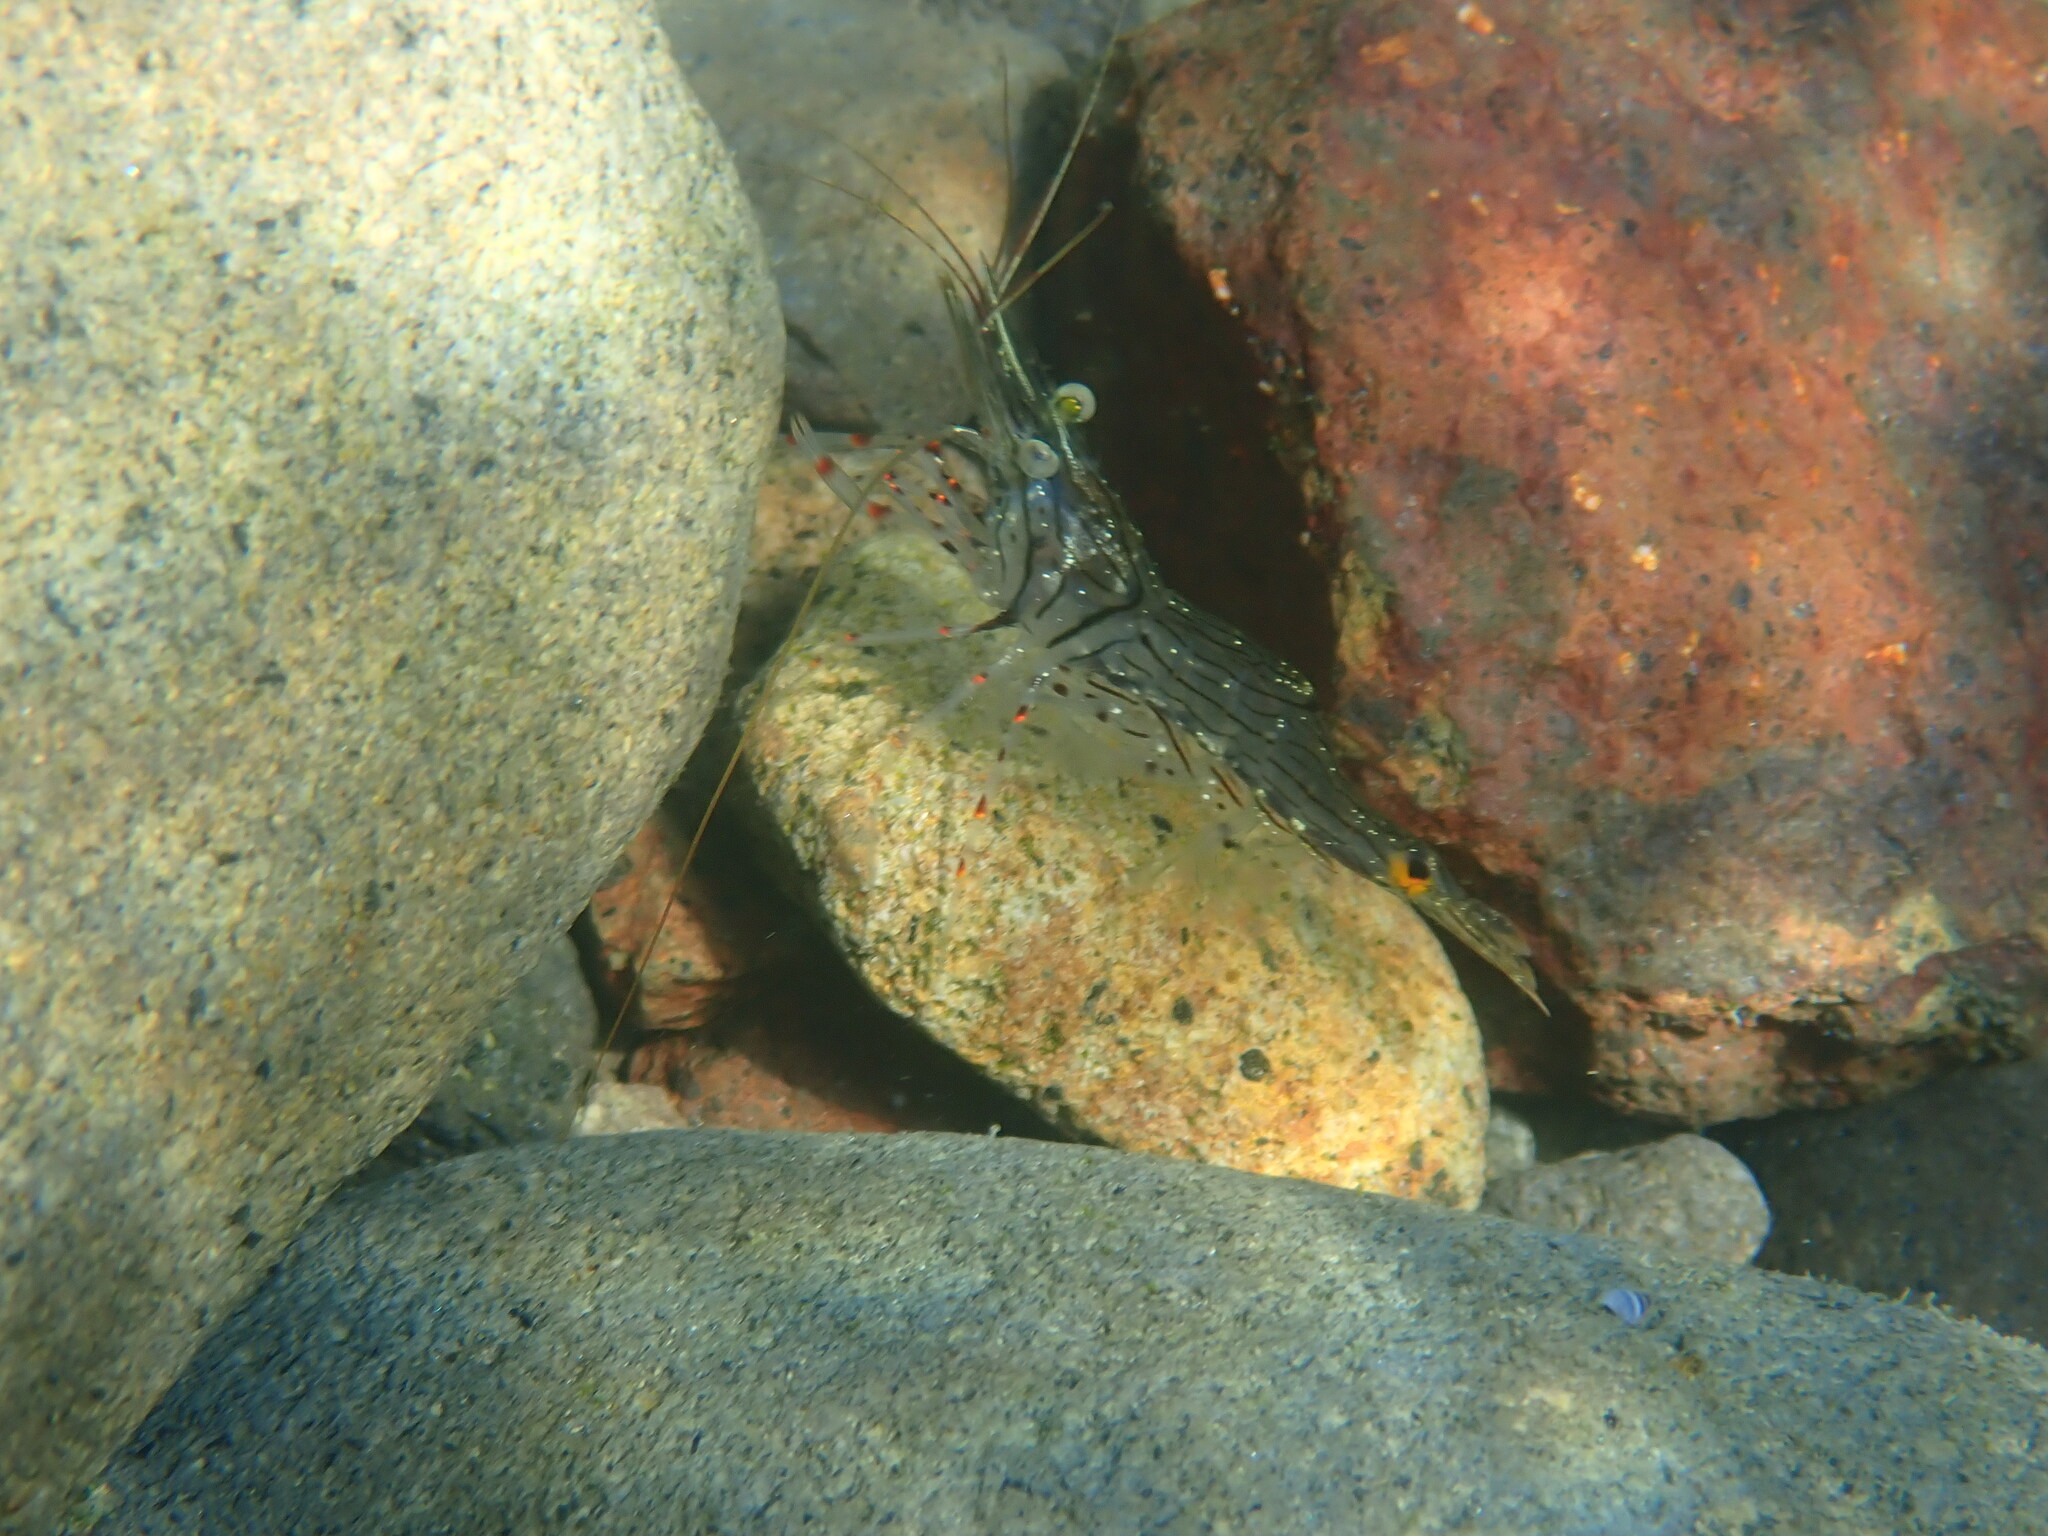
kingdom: Animalia
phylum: Arthropoda
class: Malacostraca
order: Decapoda
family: Palaemonidae
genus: Palaemon
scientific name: Palaemon affinis
